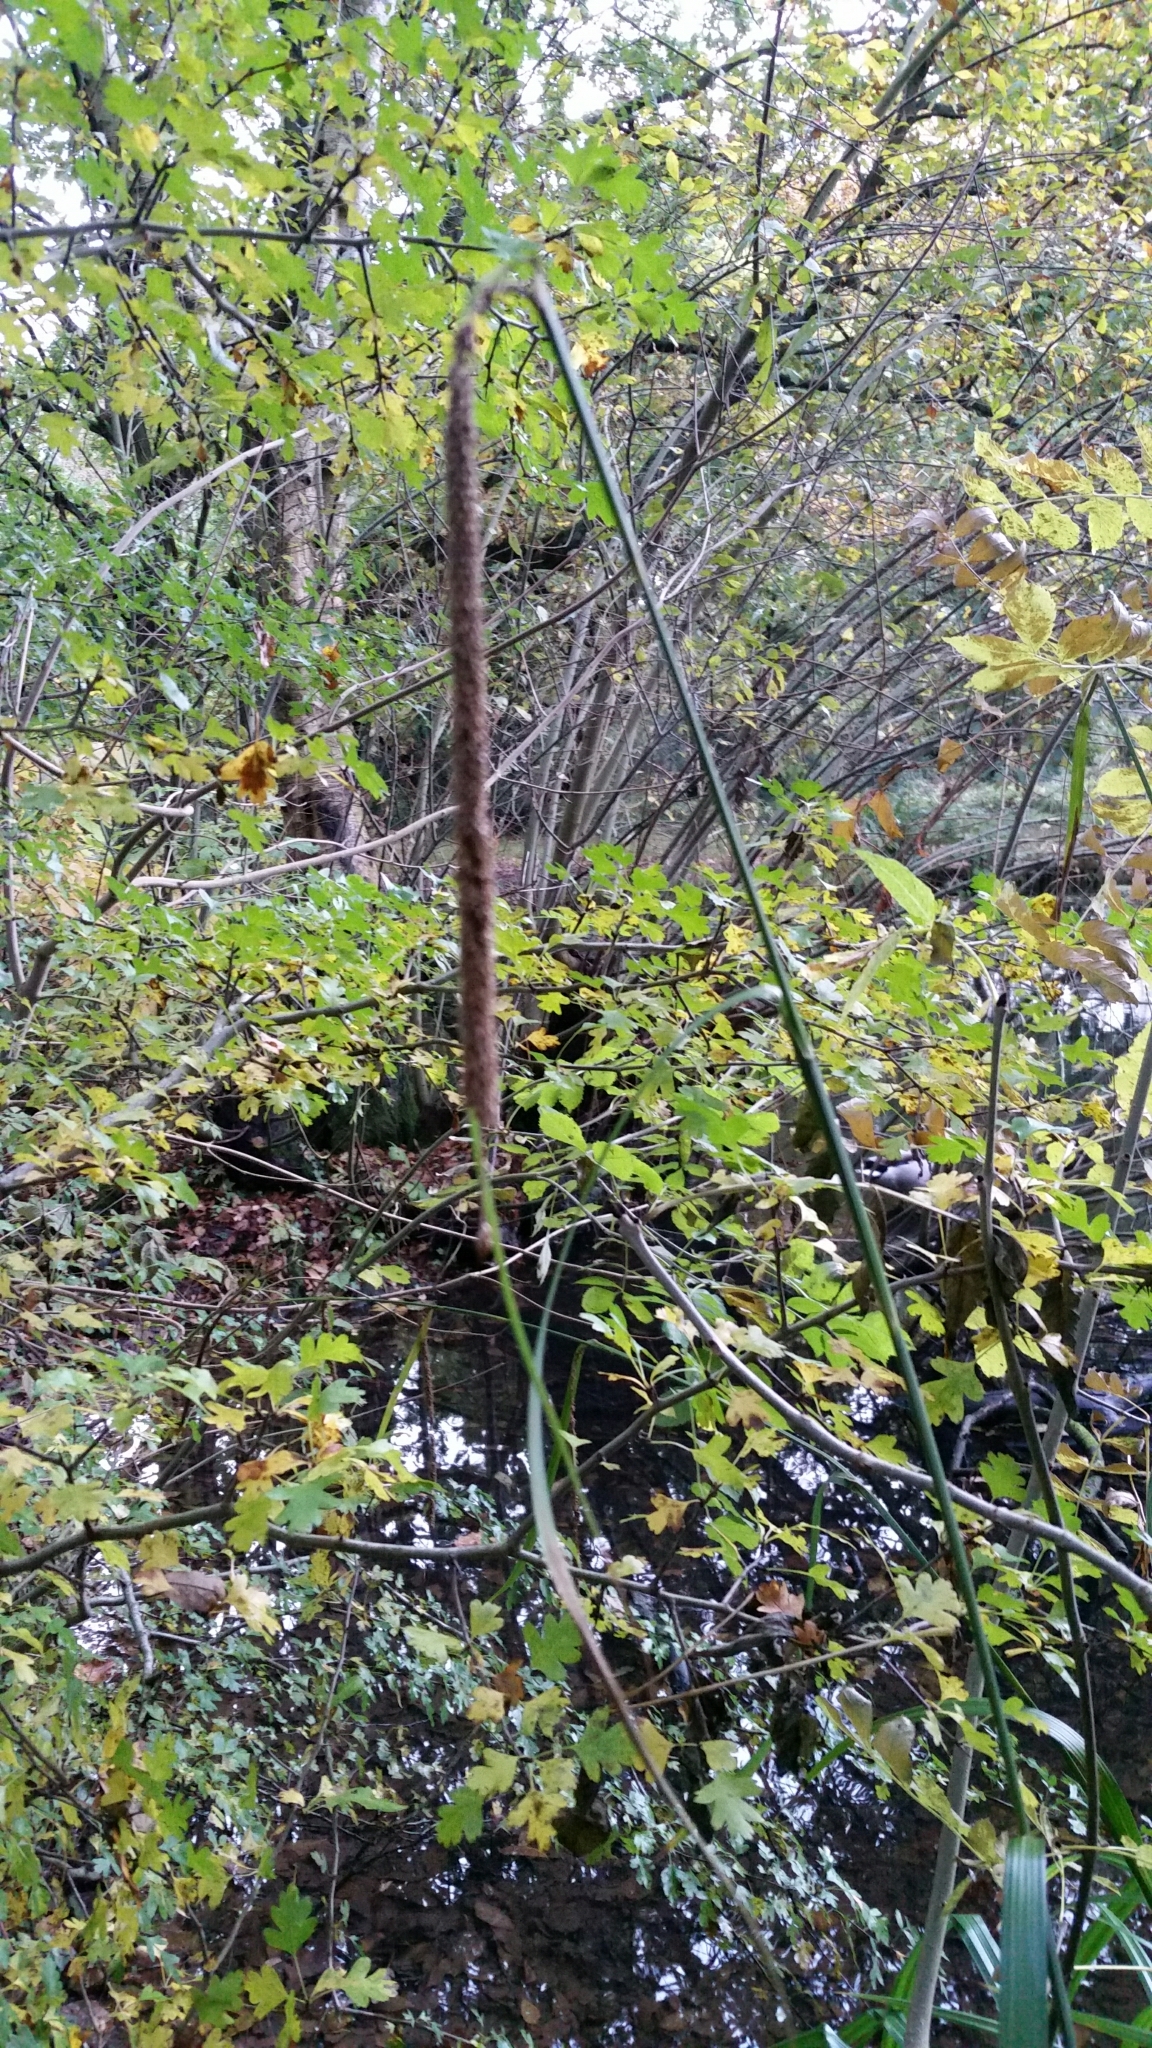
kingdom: Plantae
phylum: Tracheophyta
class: Liliopsida
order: Poales
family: Cyperaceae
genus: Carex
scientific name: Carex pendula
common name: Pendulous sedge
